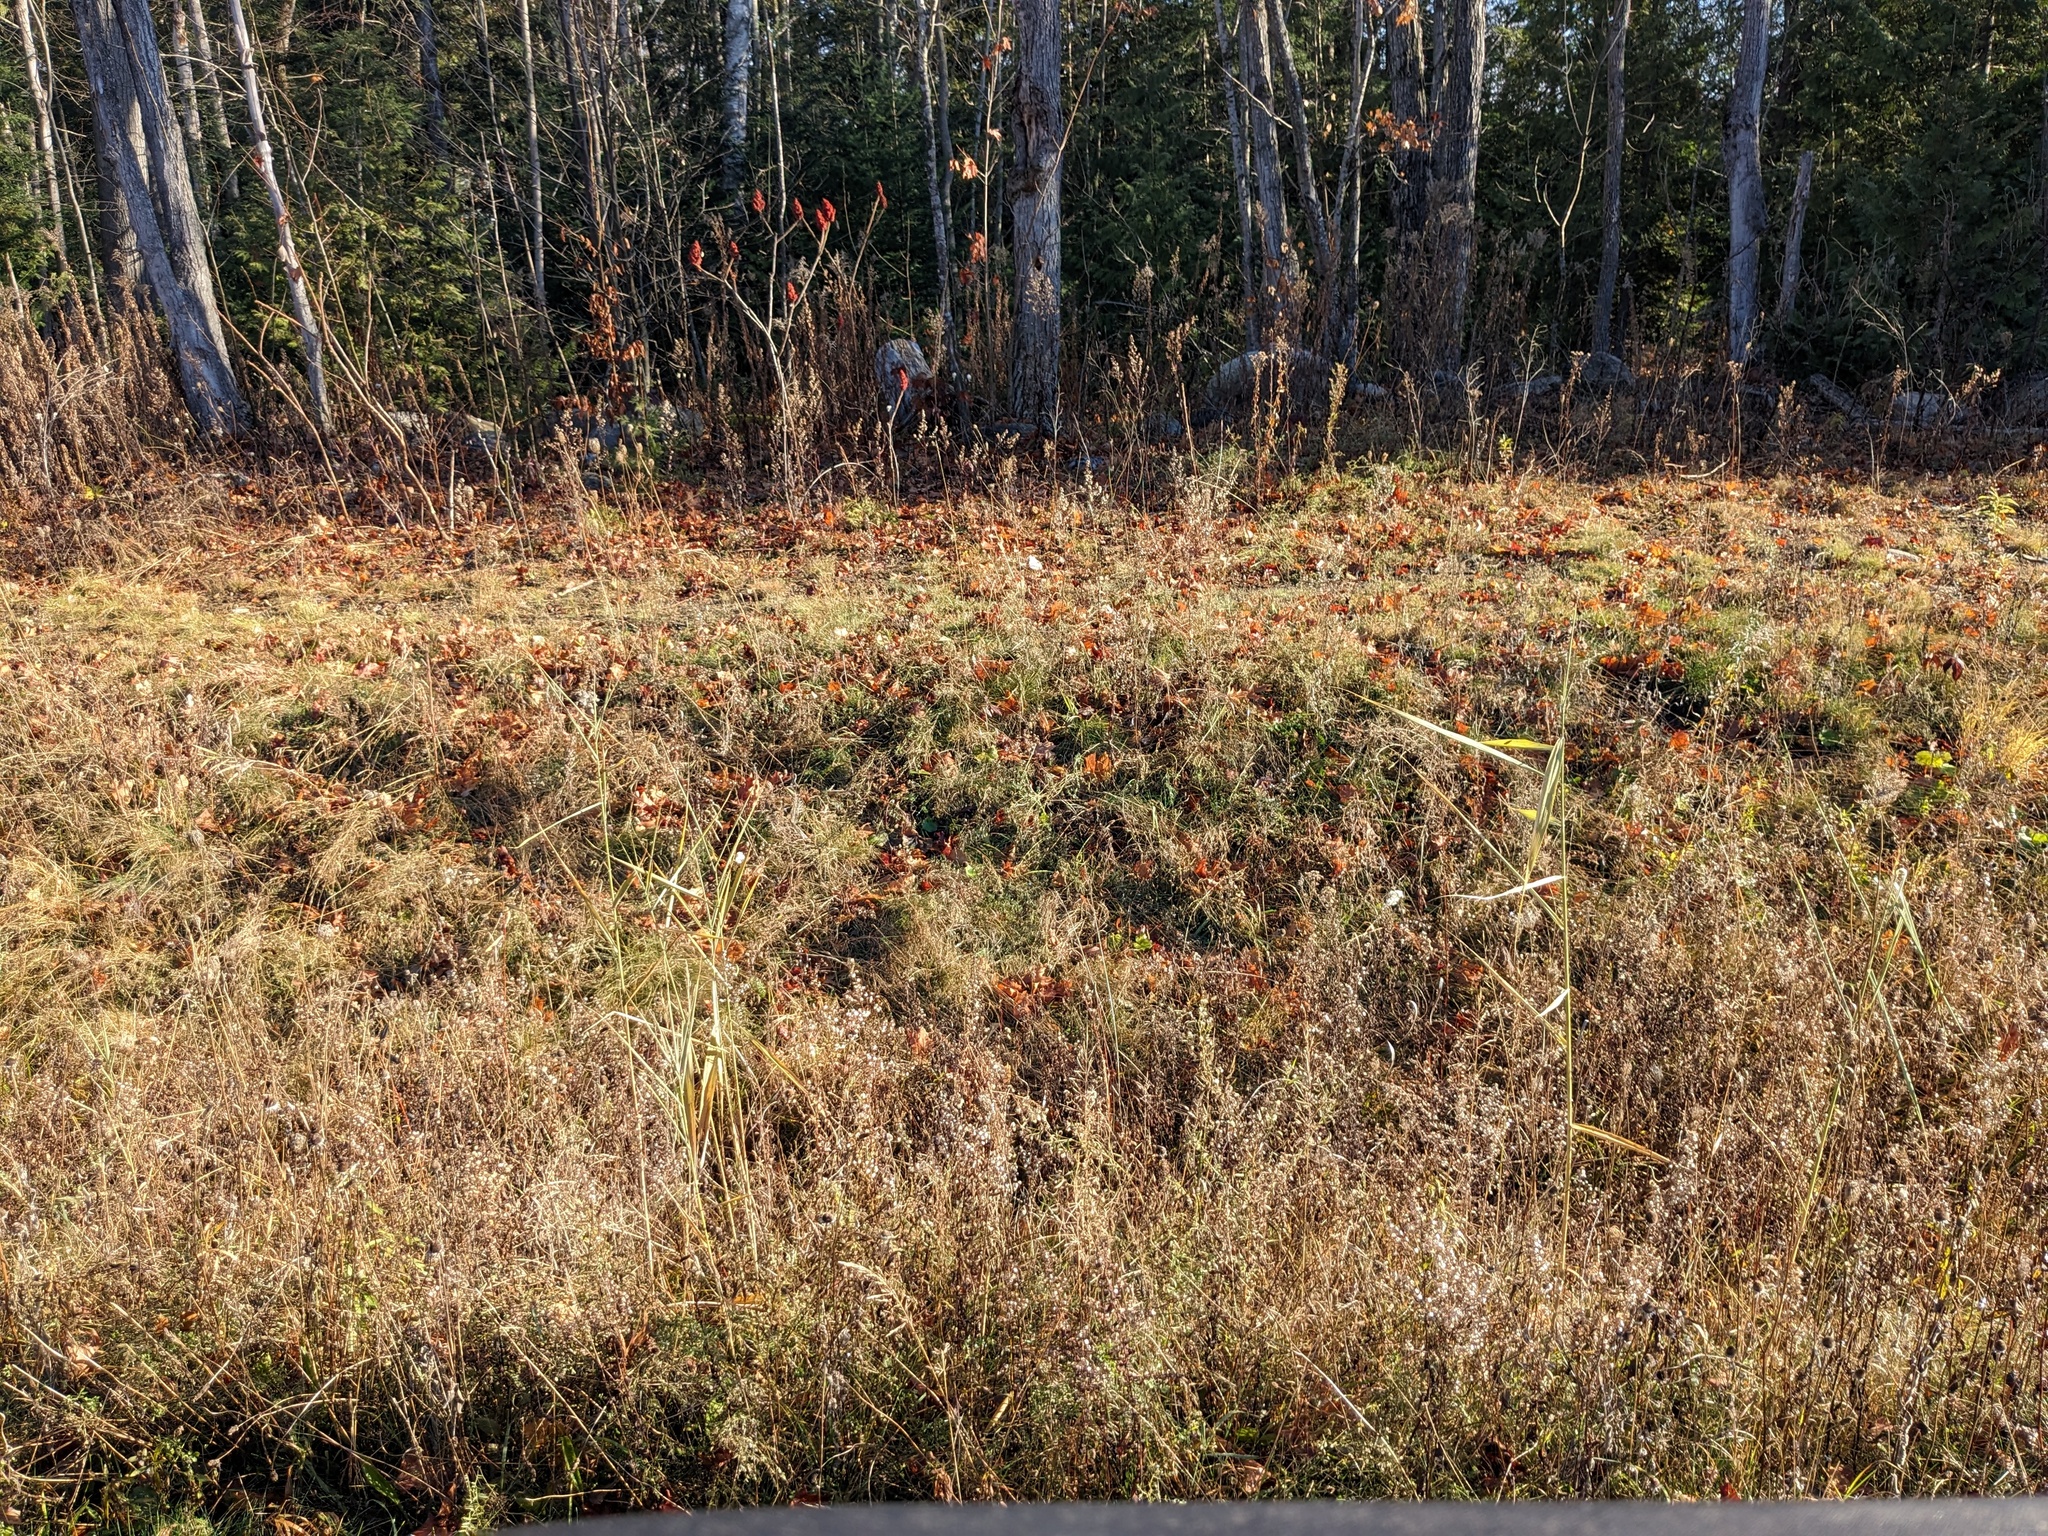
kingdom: Plantae
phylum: Tracheophyta
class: Liliopsida
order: Poales
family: Poaceae
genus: Phragmites
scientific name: Phragmites australis
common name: Common reed
